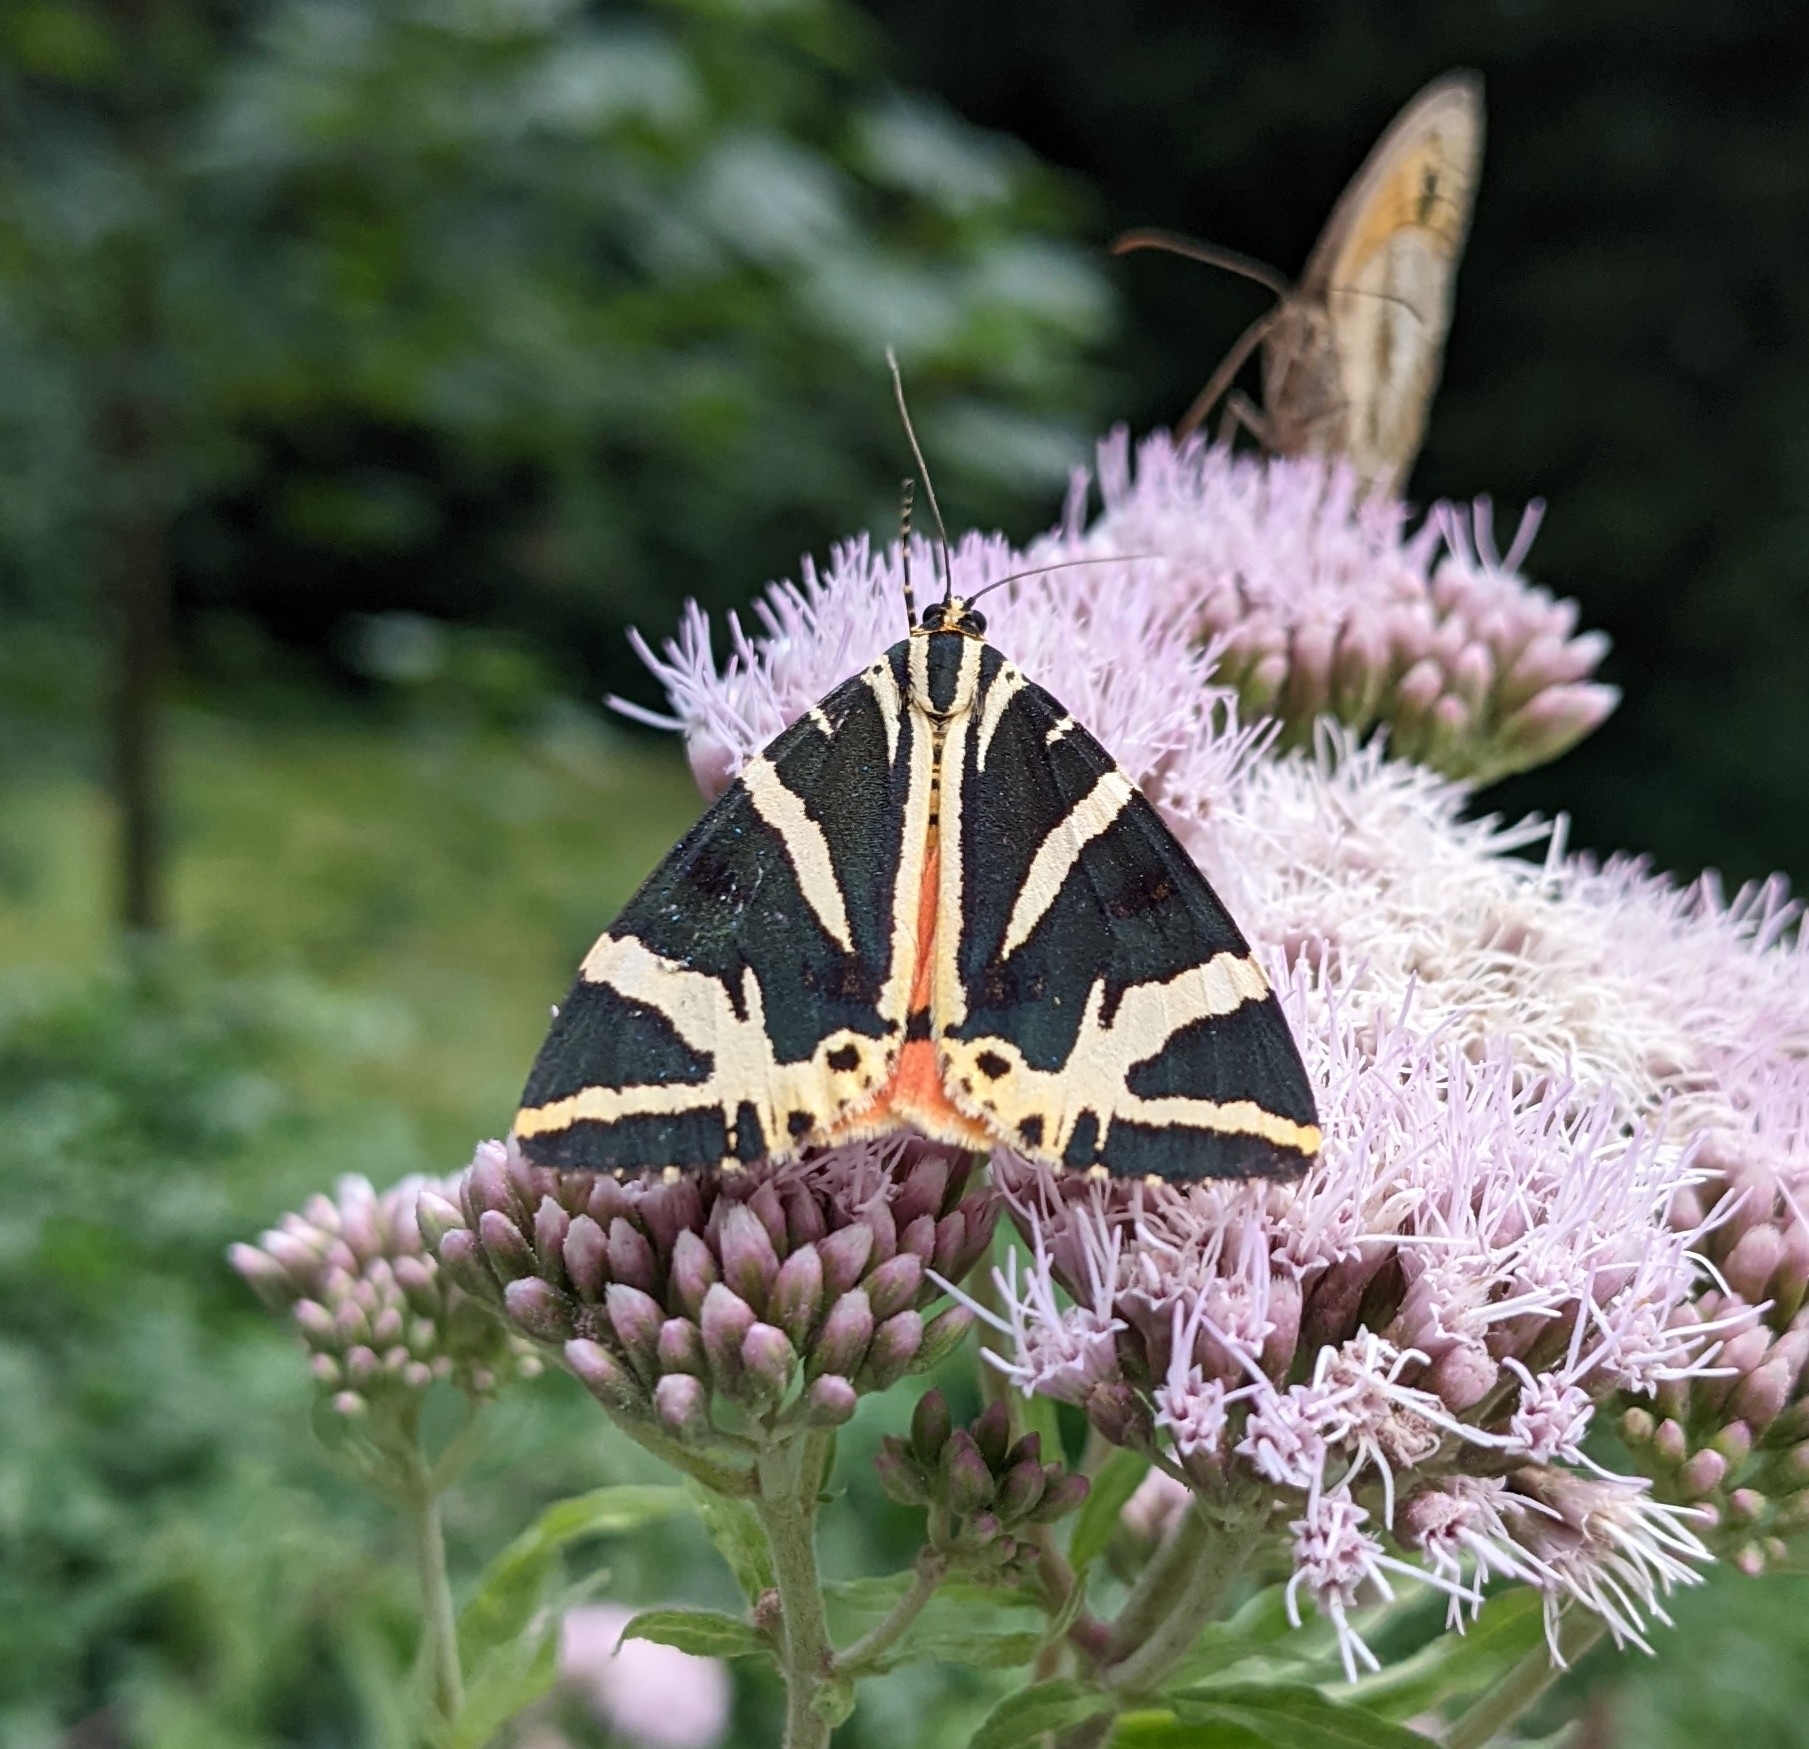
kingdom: Animalia
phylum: Arthropoda
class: Insecta
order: Lepidoptera
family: Erebidae
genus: Euplagia
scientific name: Euplagia quadripunctaria
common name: Jersey tiger
